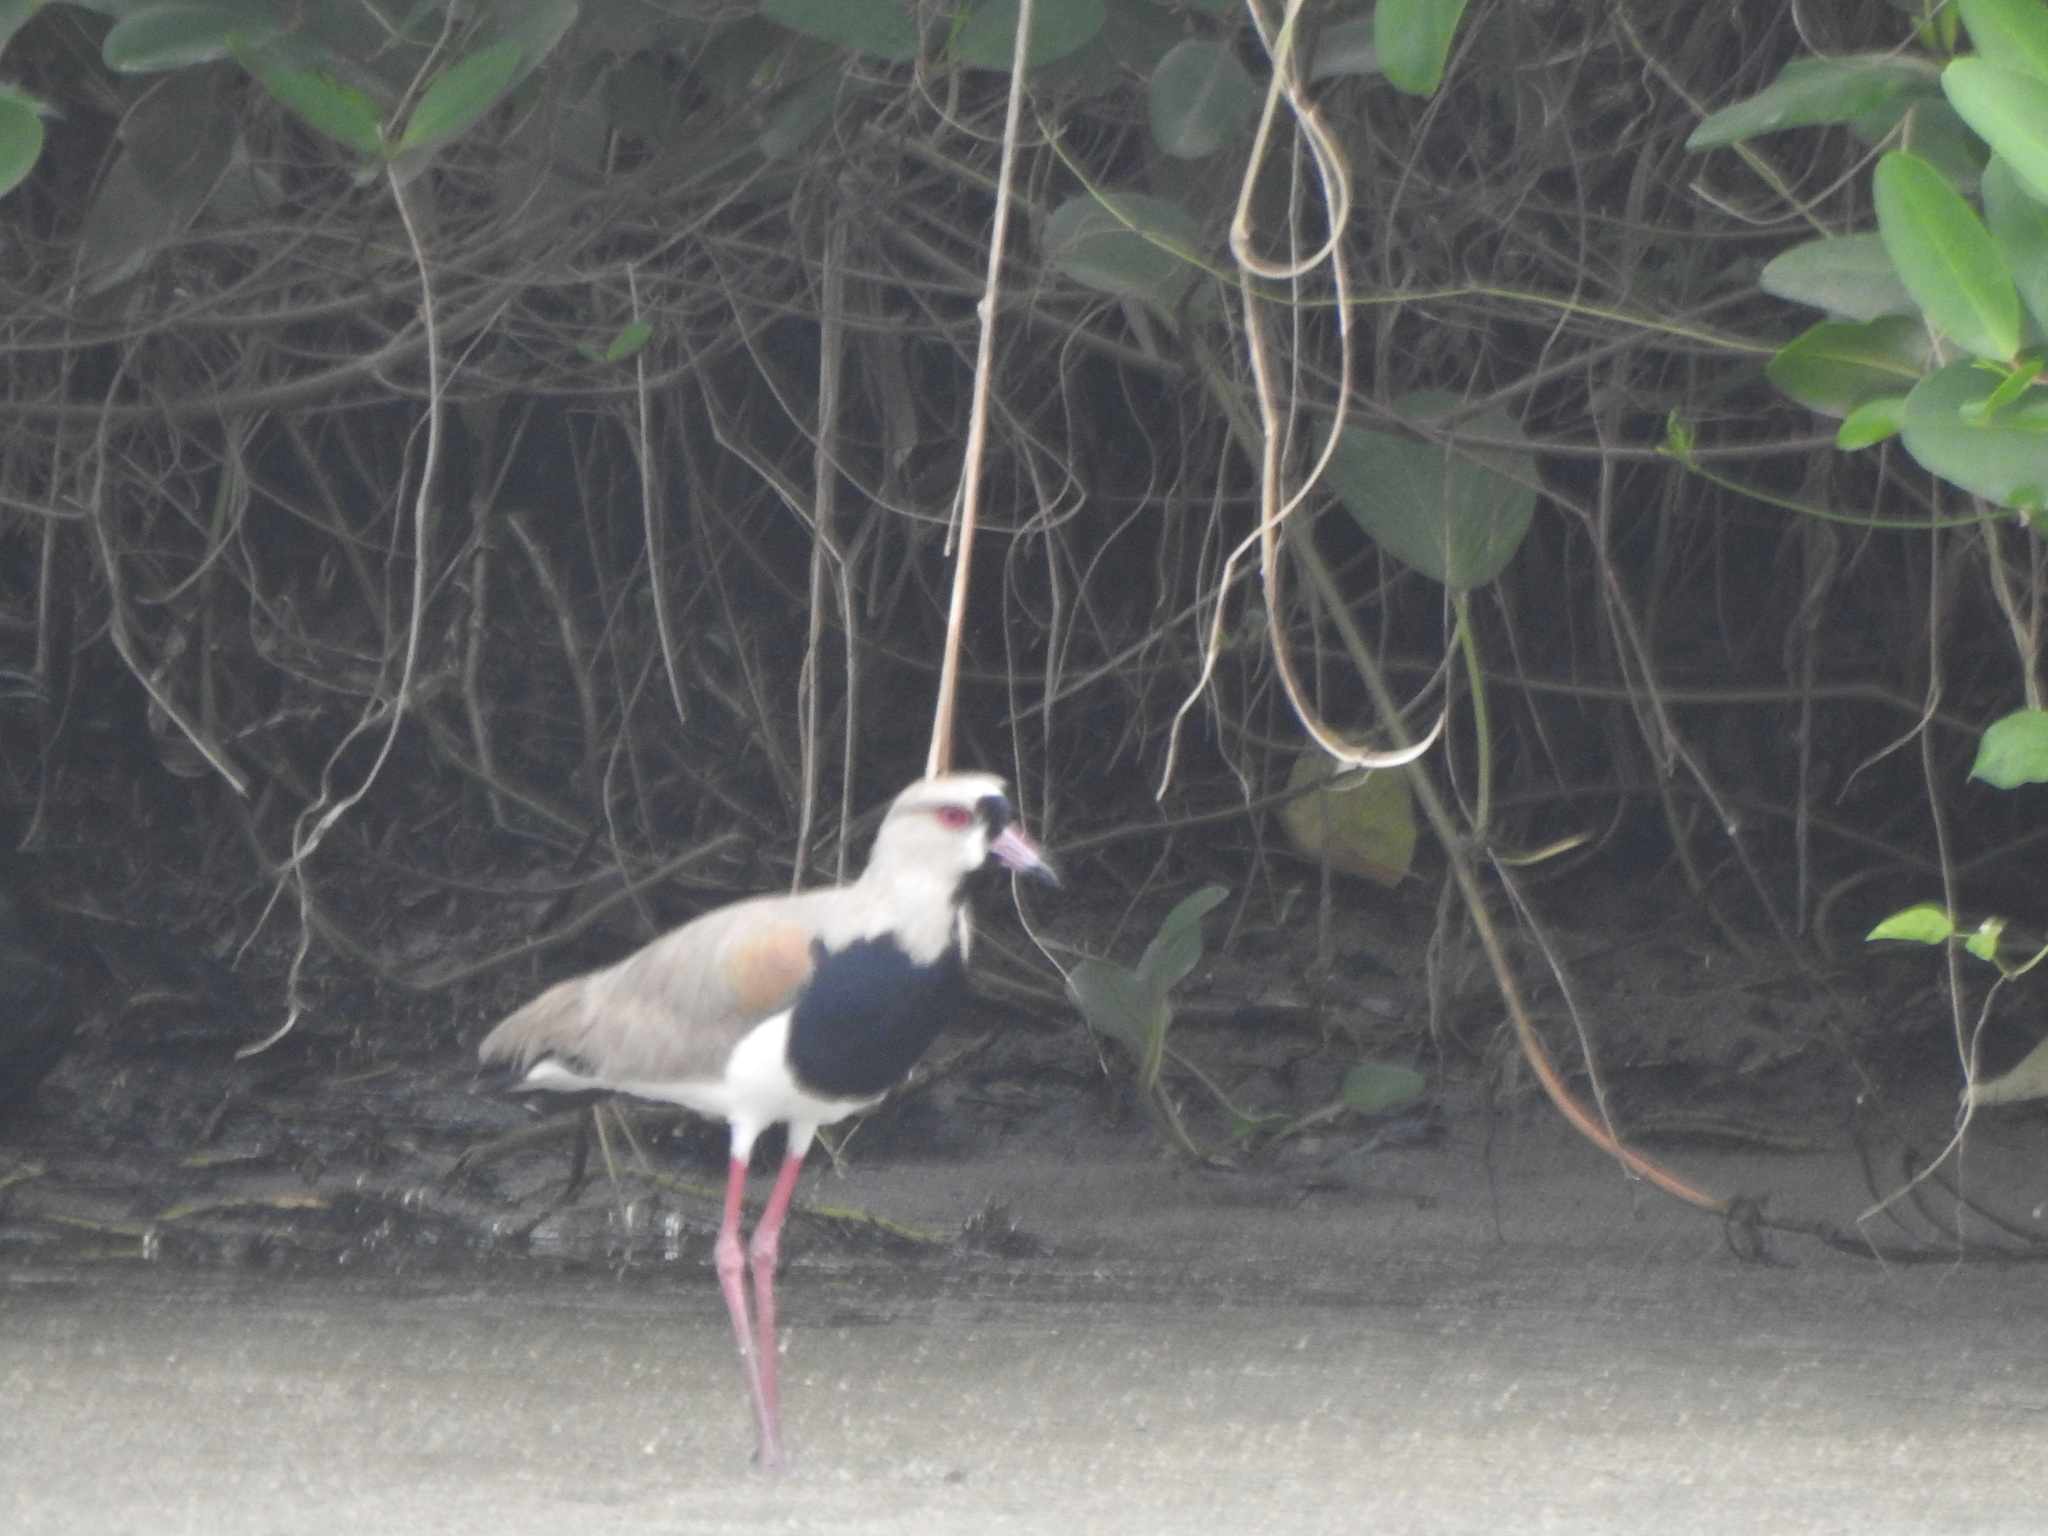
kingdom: Animalia
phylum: Chordata
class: Aves
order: Charadriiformes
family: Charadriidae
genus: Vanellus
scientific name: Vanellus chilensis
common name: Southern lapwing
